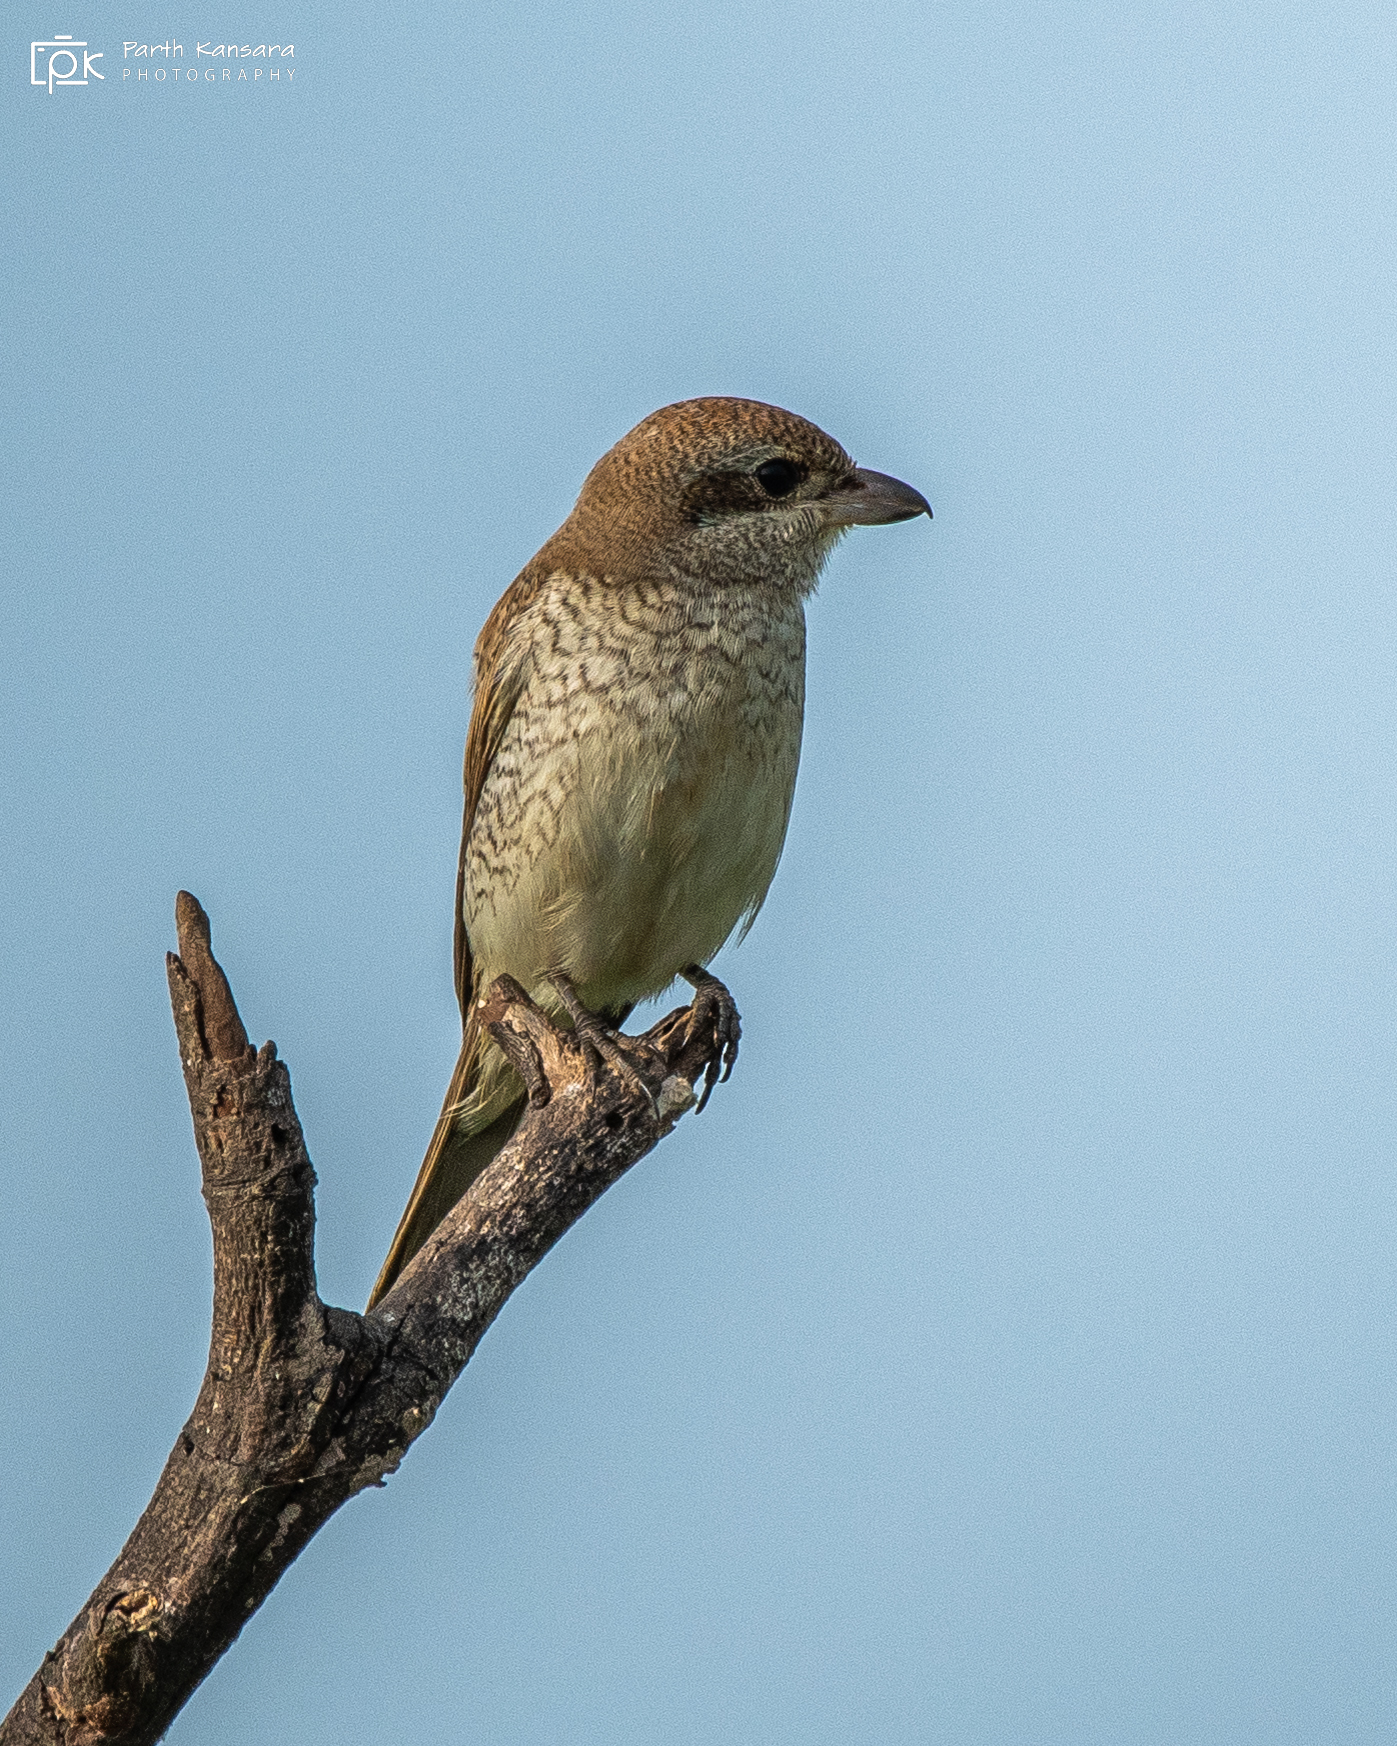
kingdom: Animalia
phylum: Chordata
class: Aves
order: Passeriformes
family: Laniidae
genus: Lanius
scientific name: Lanius cristatus
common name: Brown shrike
